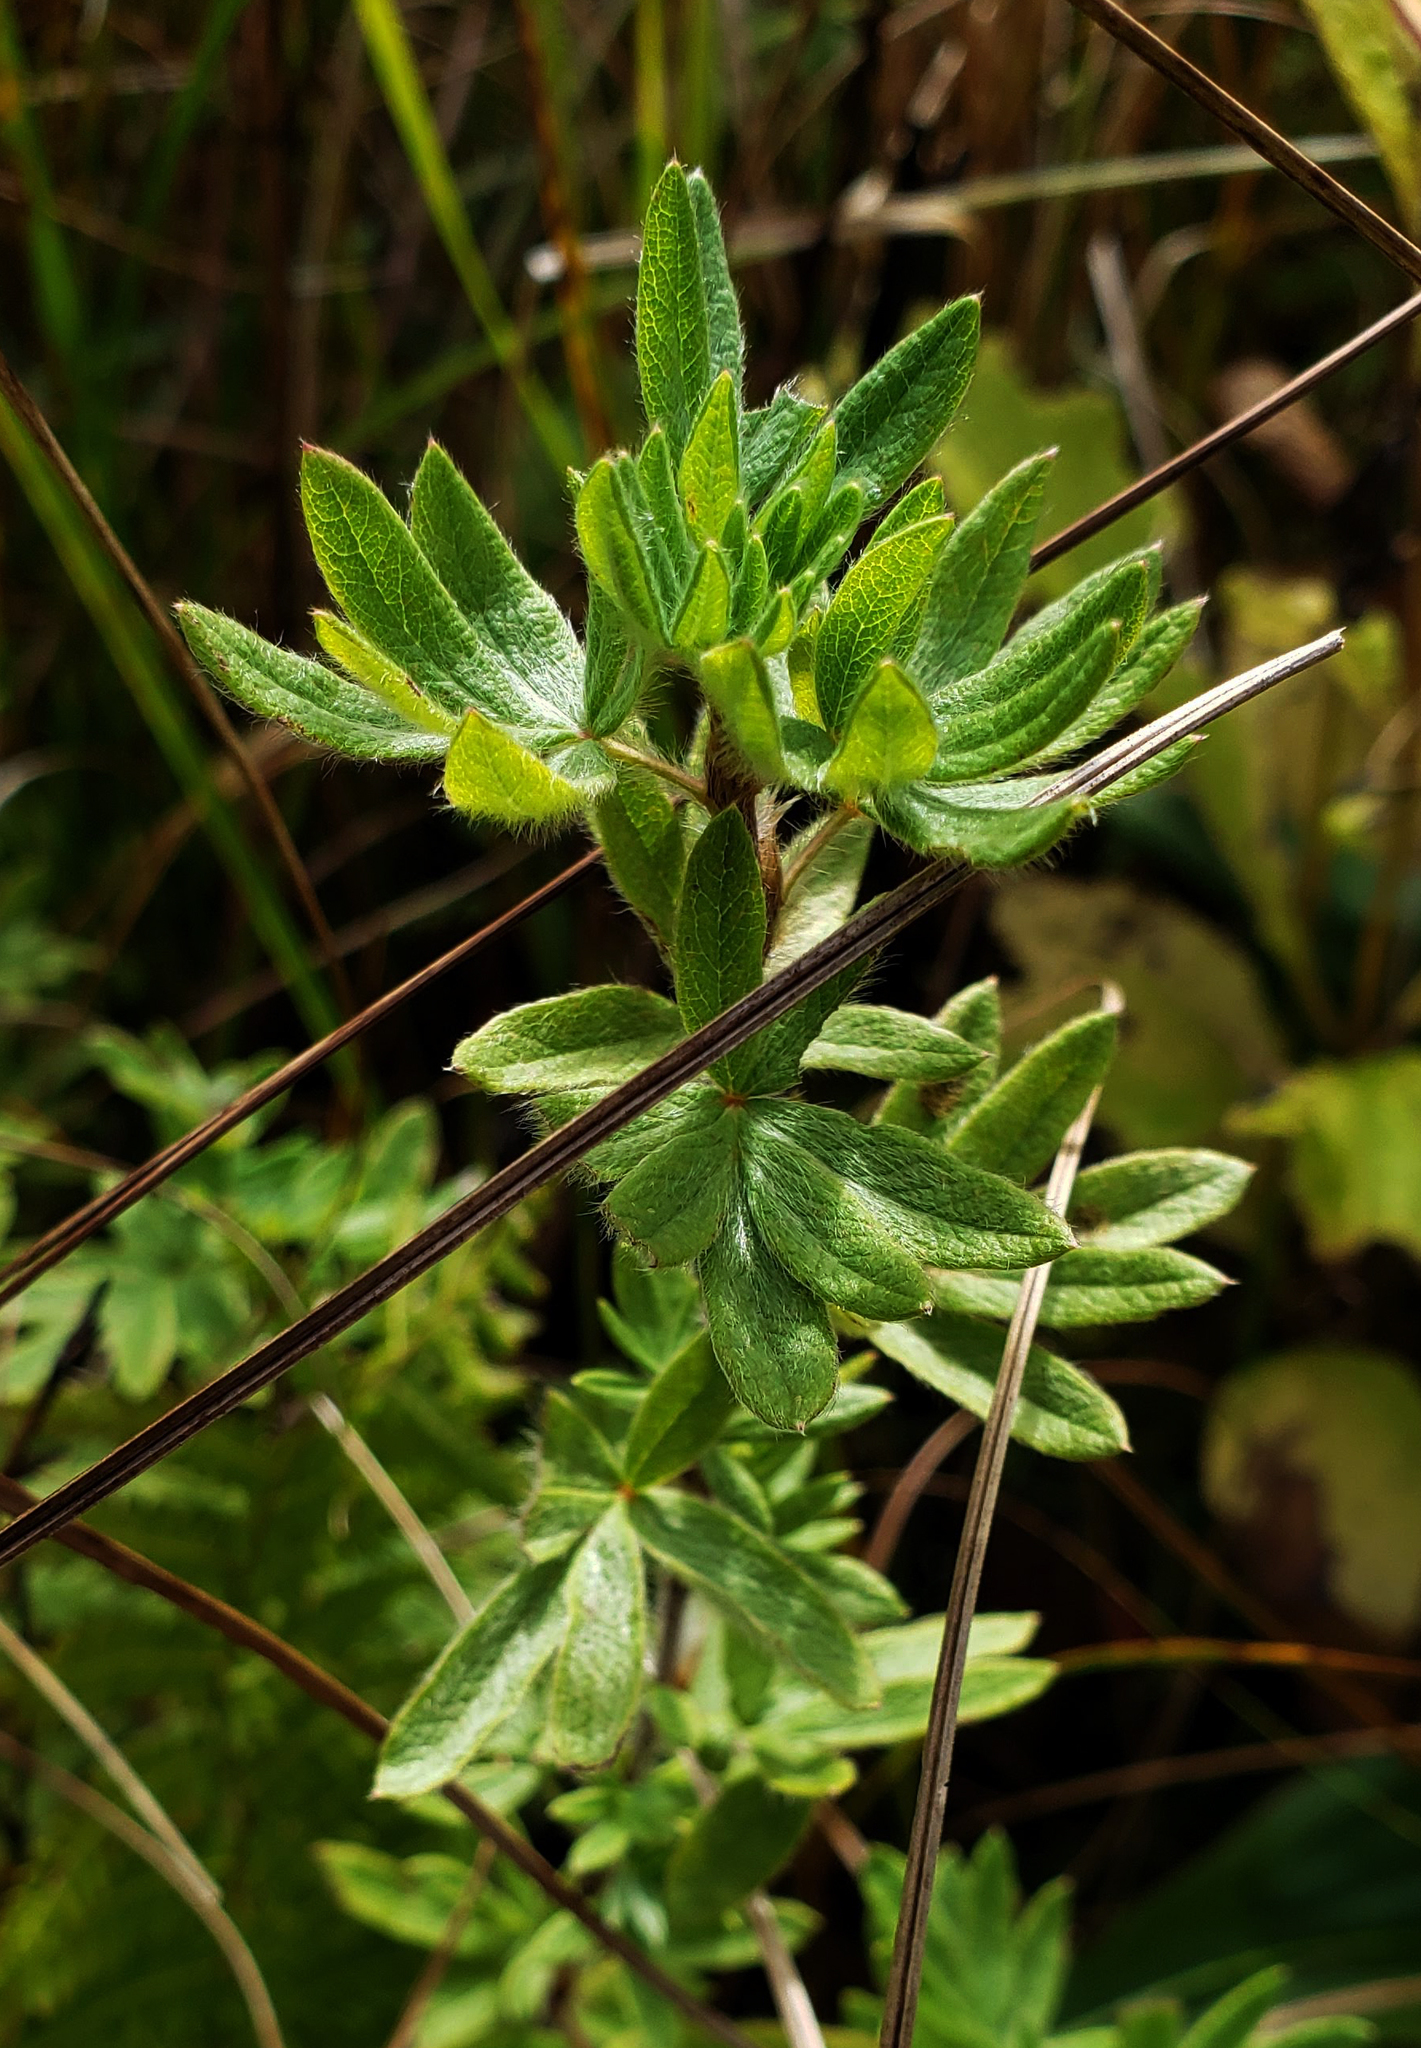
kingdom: Plantae
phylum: Tracheophyta
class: Magnoliopsida
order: Rosales
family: Rosaceae
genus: Dasiphora
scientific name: Dasiphora fruticosa
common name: Shrubby cinquefoil
